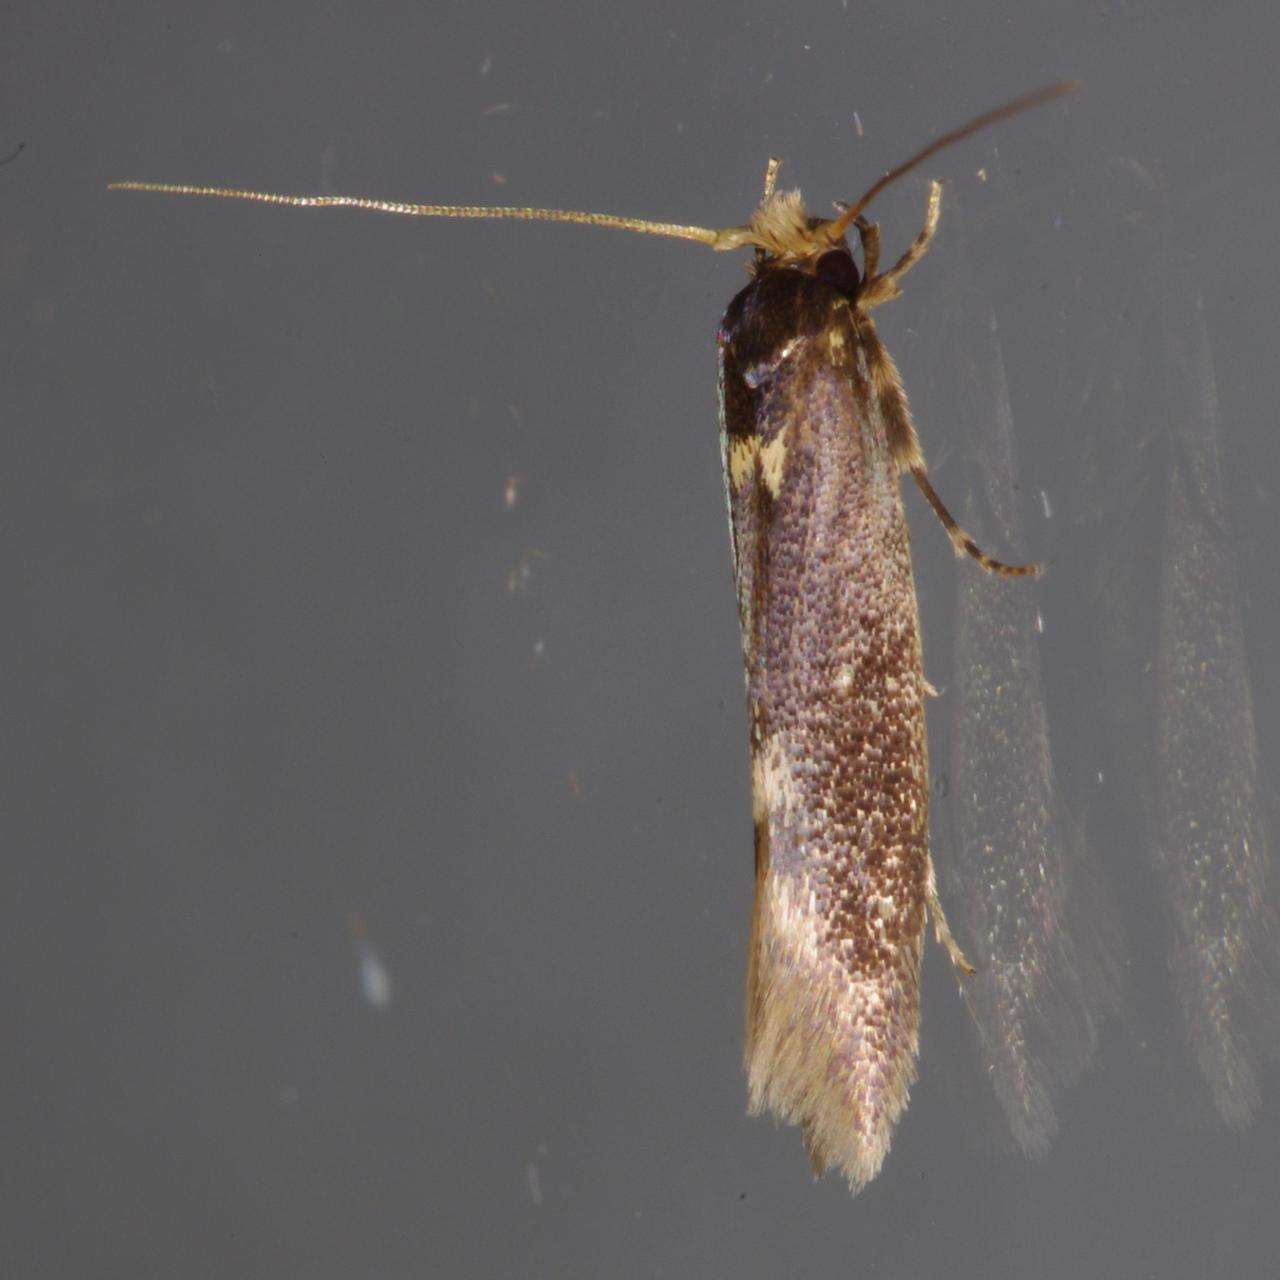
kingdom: Animalia
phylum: Arthropoda
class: Insecta
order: Lepidoptera
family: Tineidae
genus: Opogona
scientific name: Opogona omoscopa
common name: Moth
